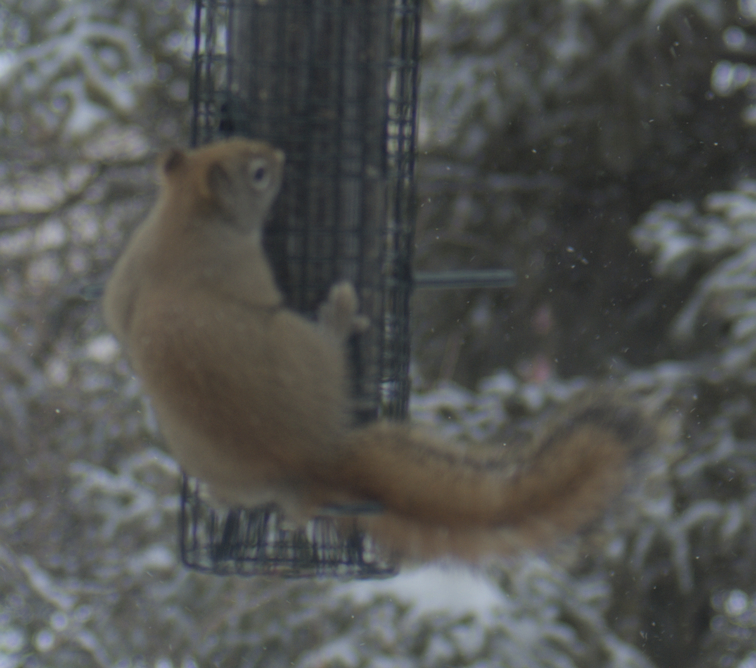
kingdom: Animalia
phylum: Chordata
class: Mammalia
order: Rodentia
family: Sciuridae
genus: Tamiasciurus
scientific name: Tamiasciurus hudsonicus
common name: Red squirrel
